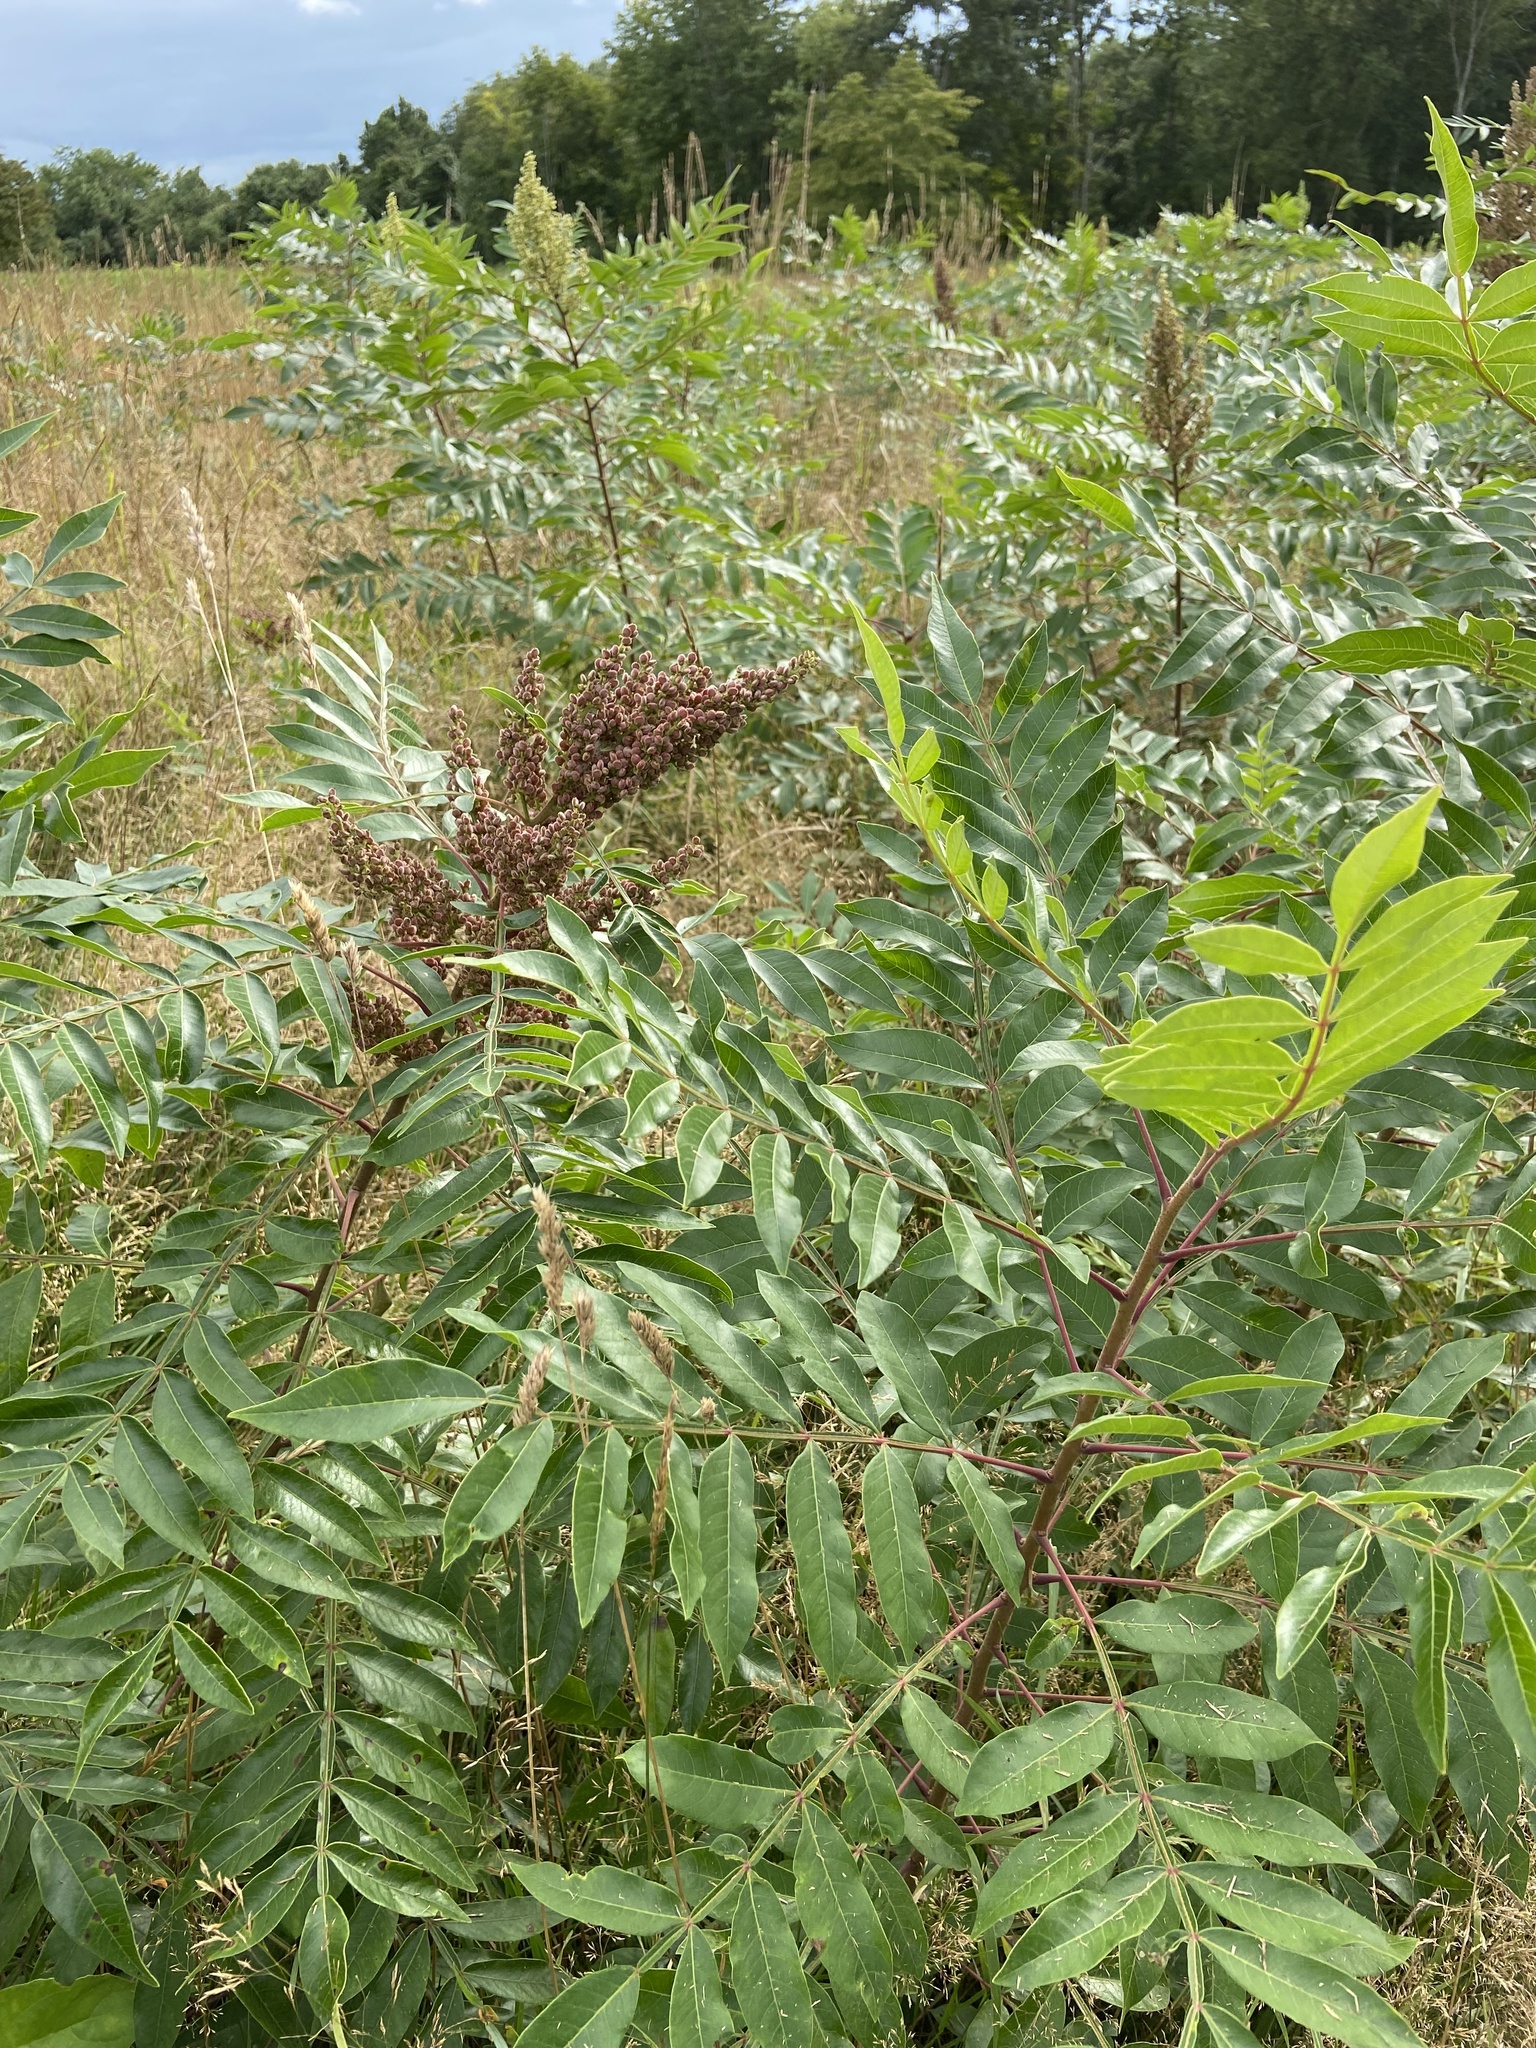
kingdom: Plantae
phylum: Tracheophyta
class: Magnoliopsida
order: Sapindales
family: Anacardiaceae
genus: Rhus
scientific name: Rhus copallina
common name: Shining sumac
